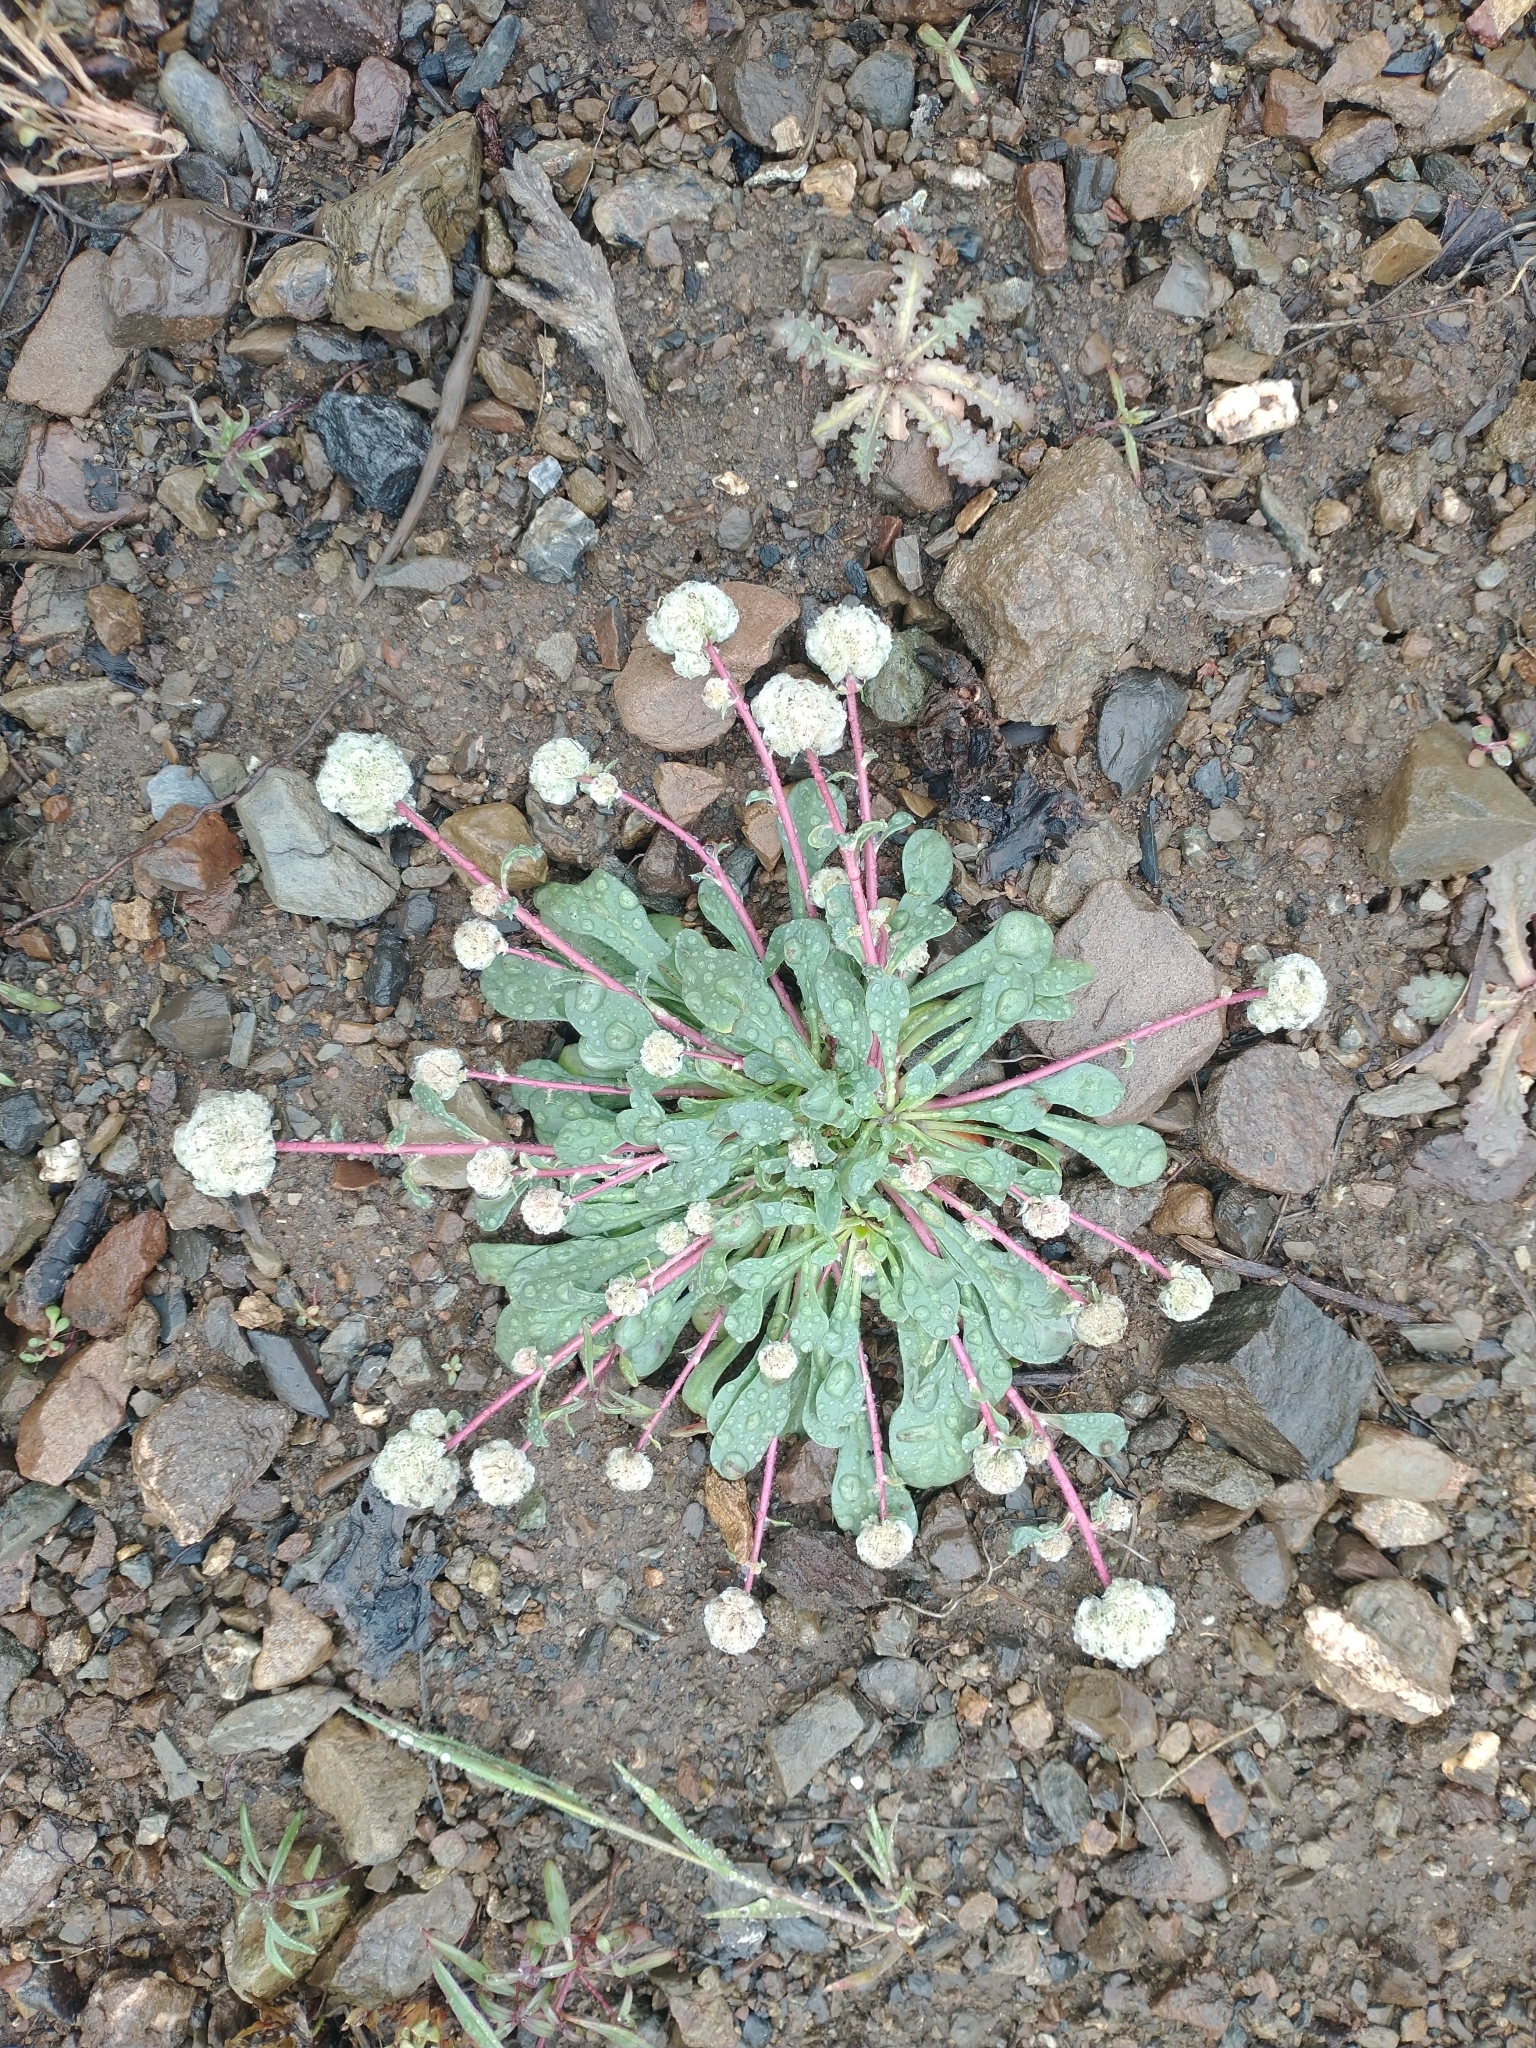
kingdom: Plantae
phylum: Tracheophyta
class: Magnoliopsida
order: Caryophyllales
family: Montiaceae
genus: Calyptridium
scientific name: Calyptridium monospermum
